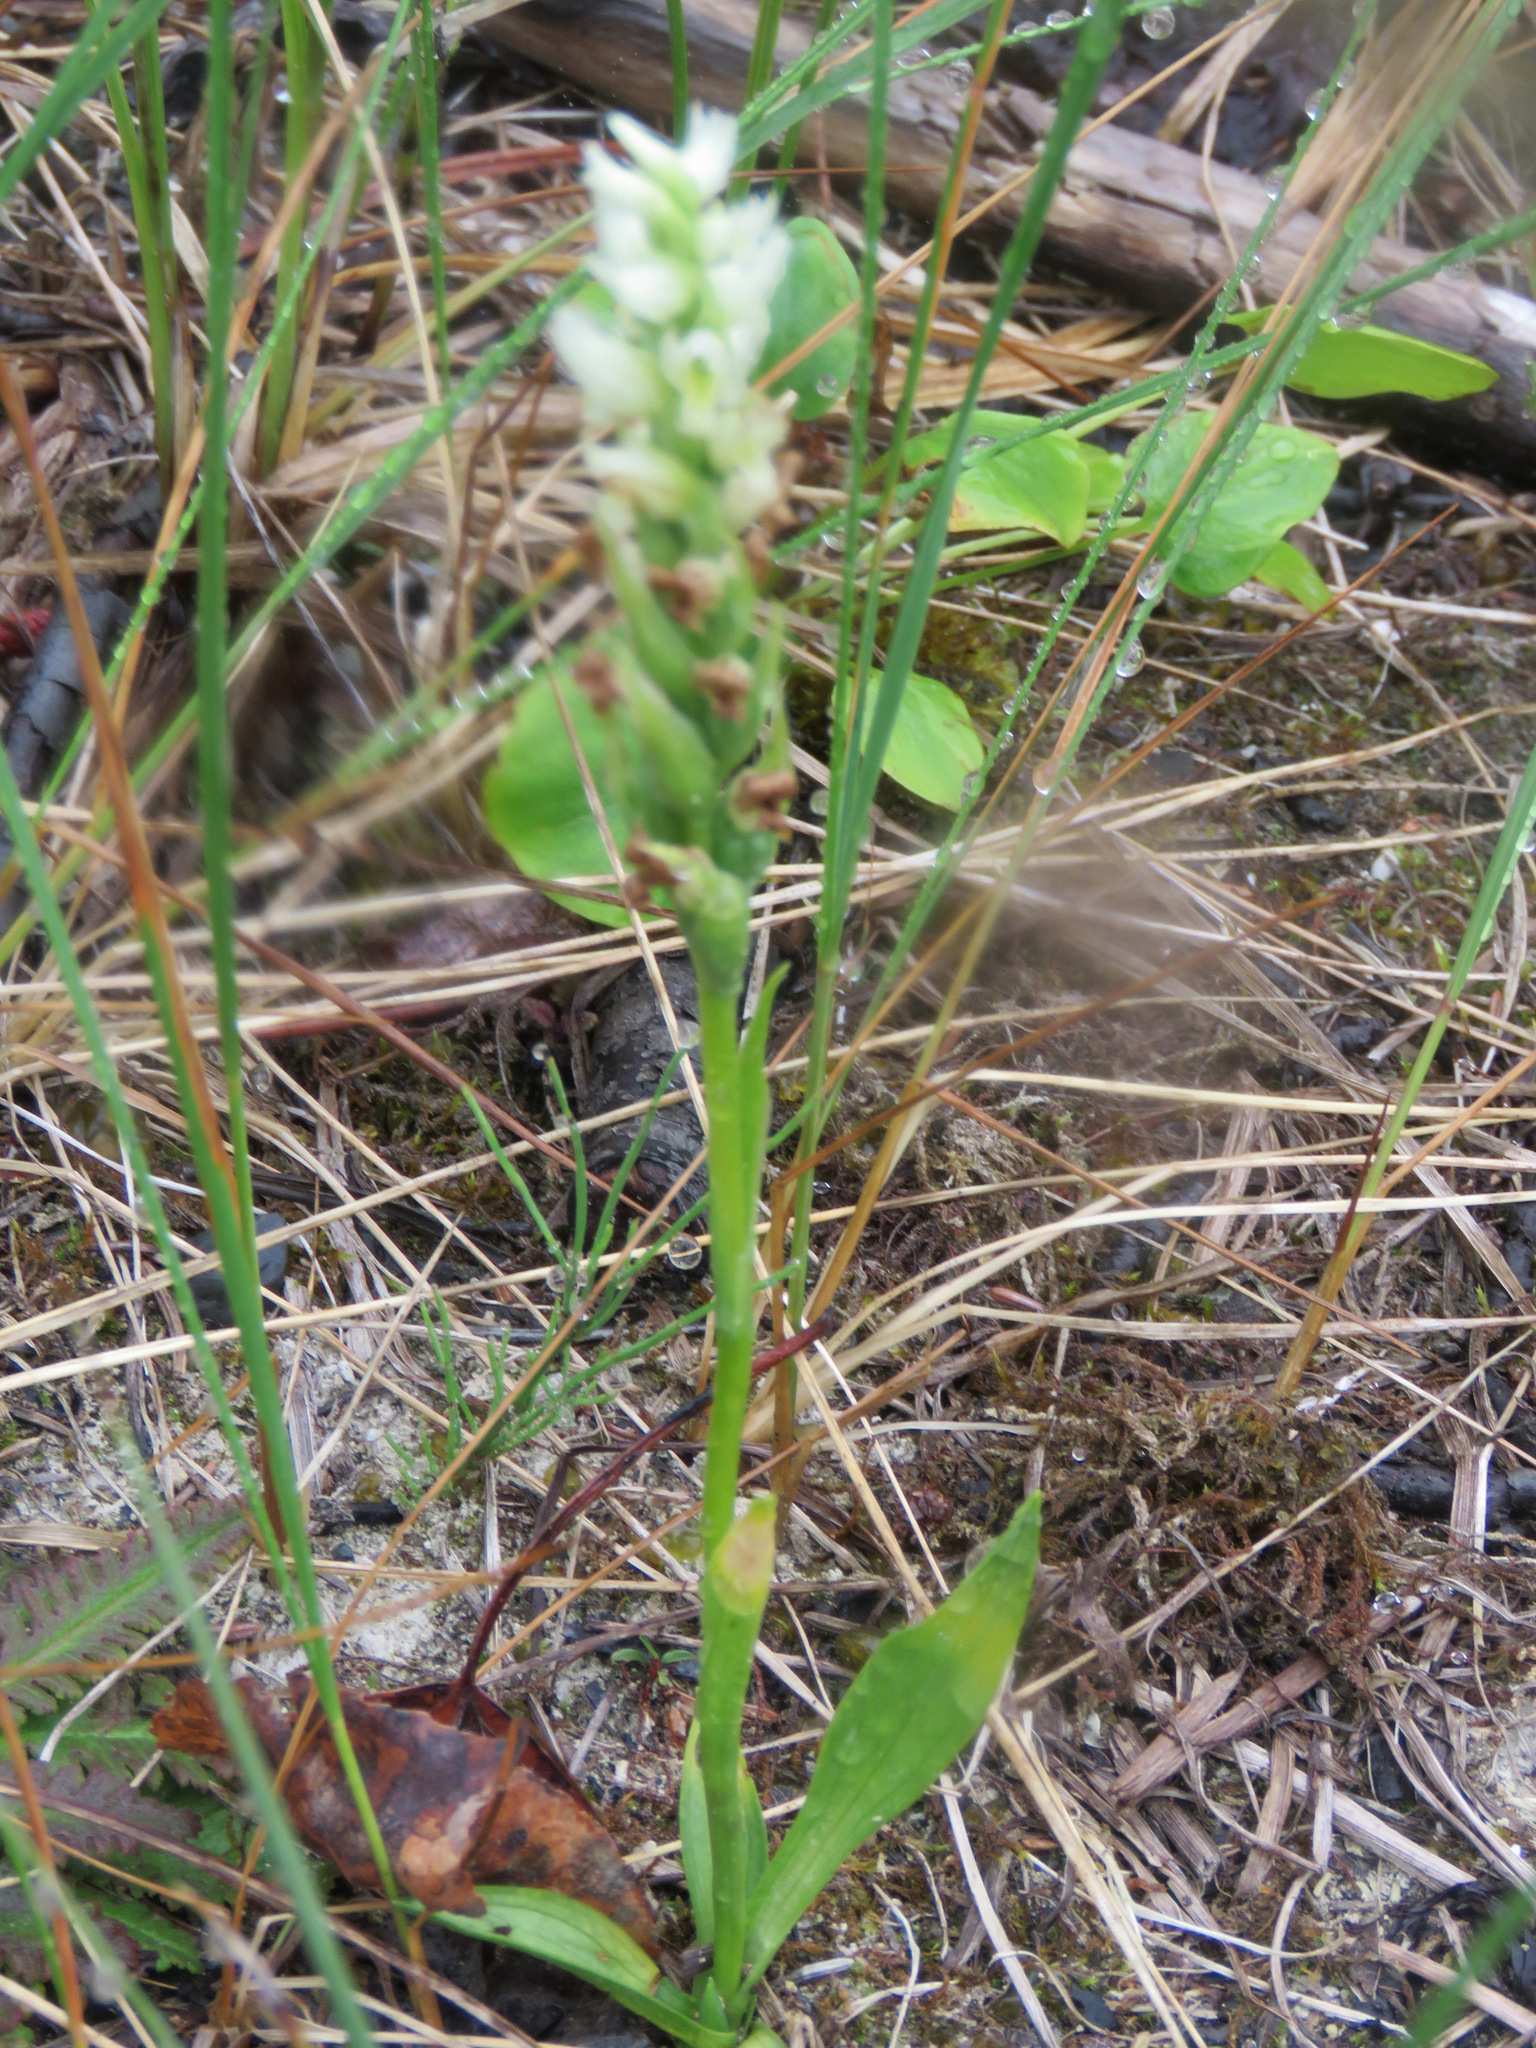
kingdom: Plantae
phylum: Tracheophyta
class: Liliopsida
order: Asparagales
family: Orchidaceae
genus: Spiranthes
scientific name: Spiranthes romanzoffiana
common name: Irish lady's-tresses
